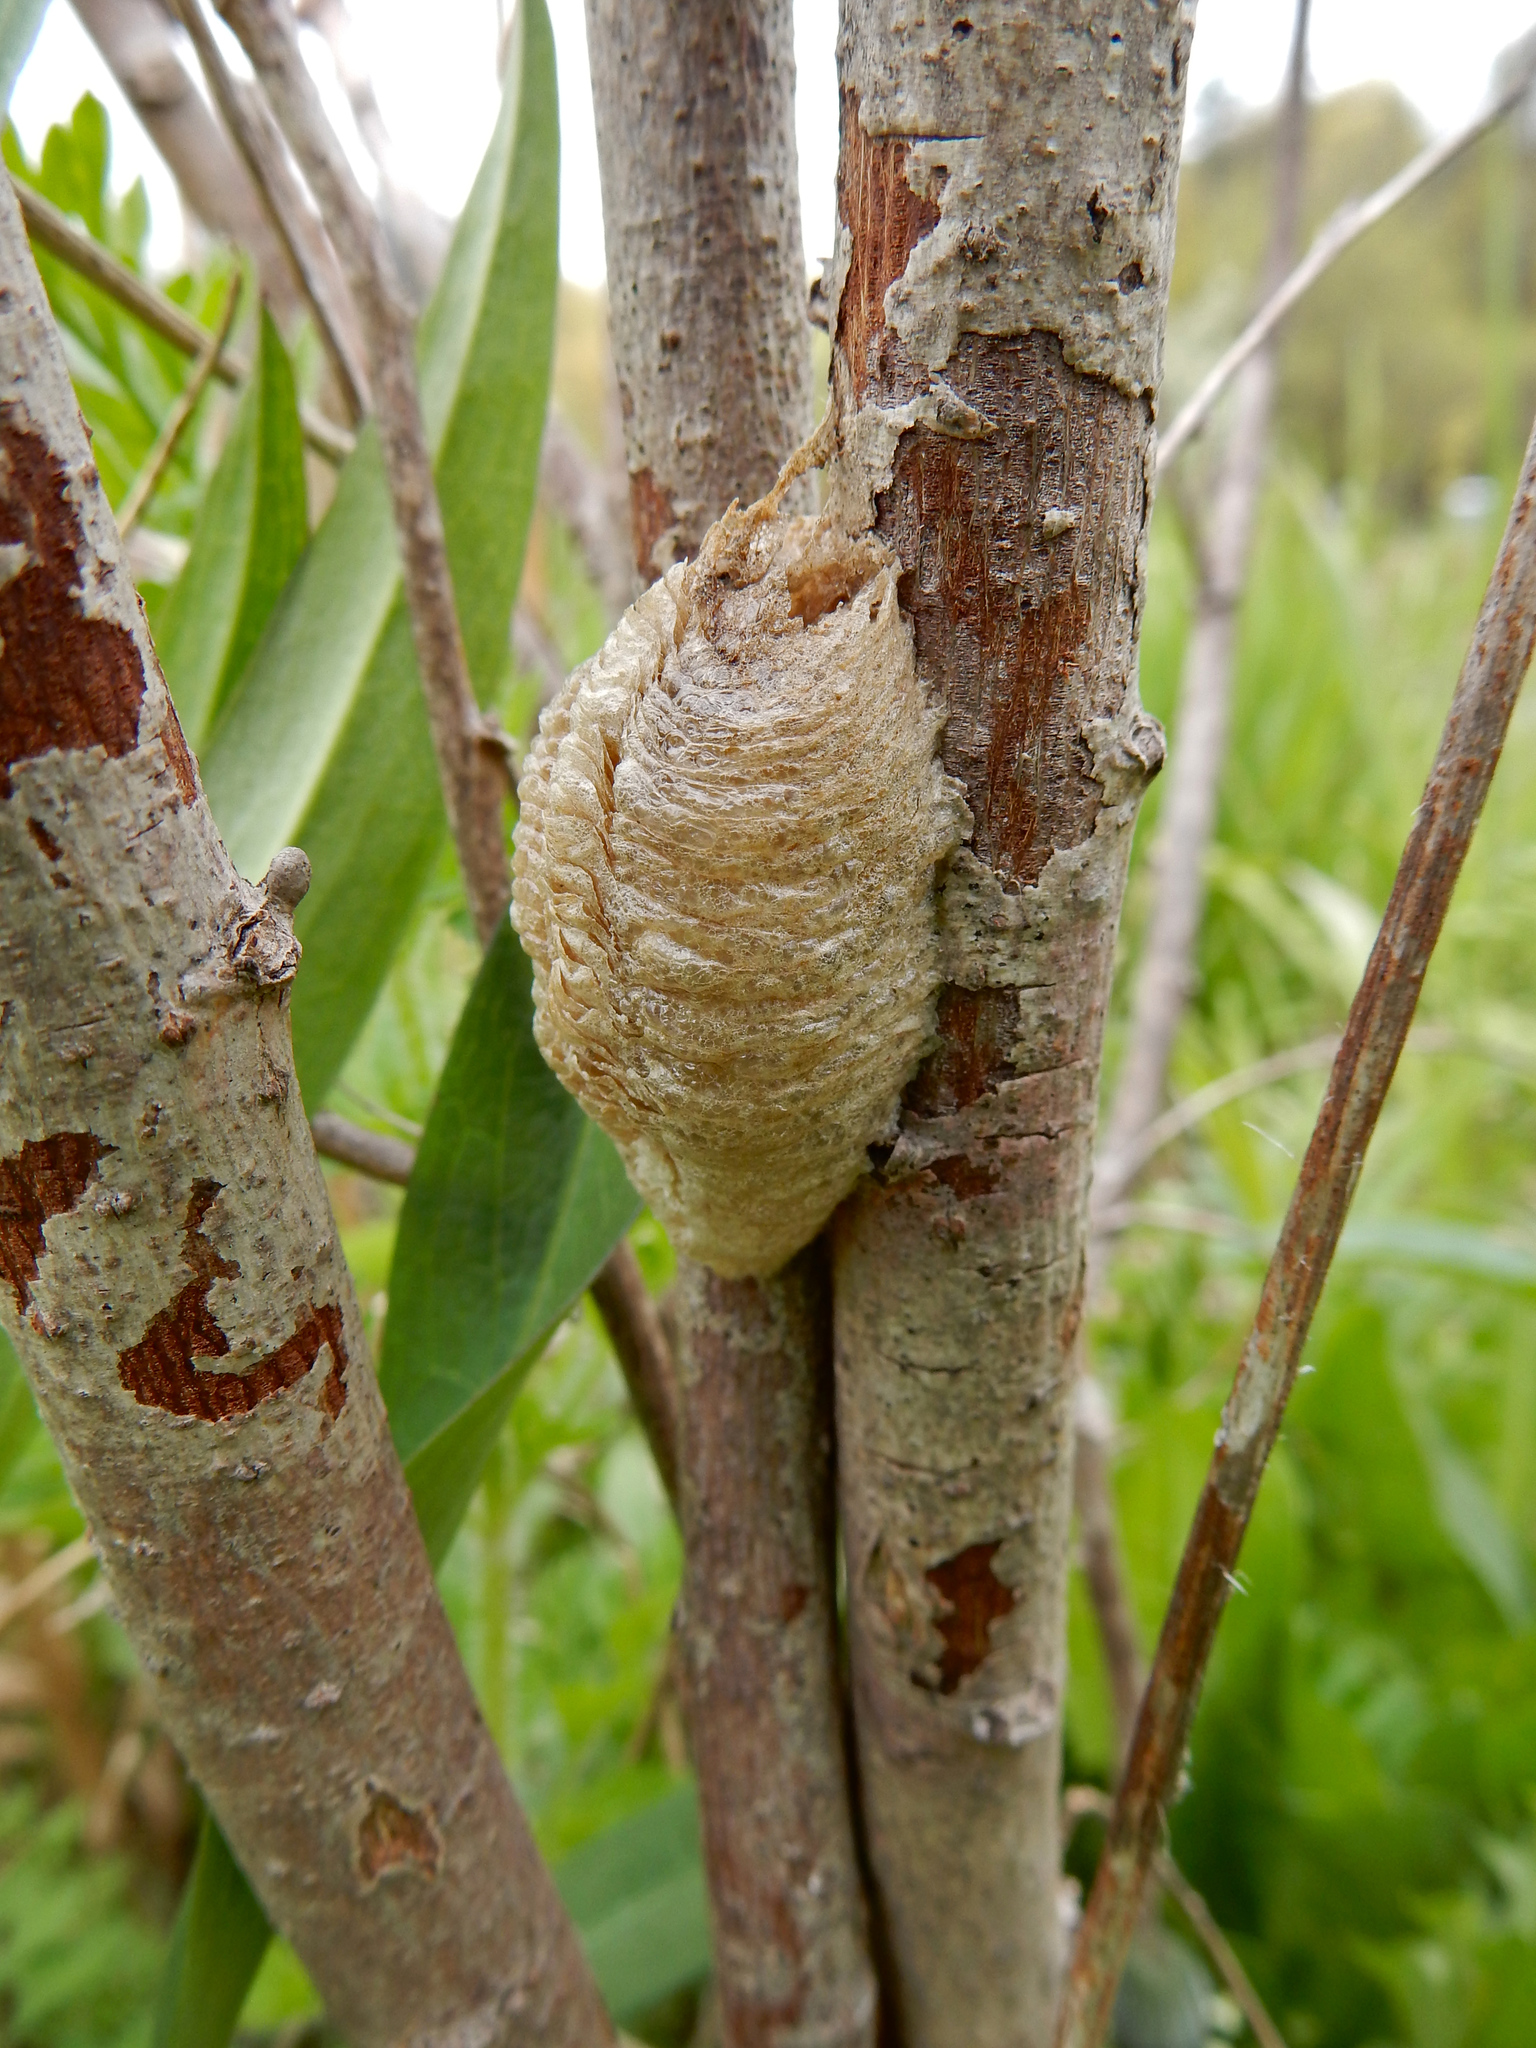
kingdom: Animalia
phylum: Arthropoda
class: Insecta
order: Mantodea
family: Mantidae
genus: Mantis
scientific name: Mantis religiosa
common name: Praying mantis
